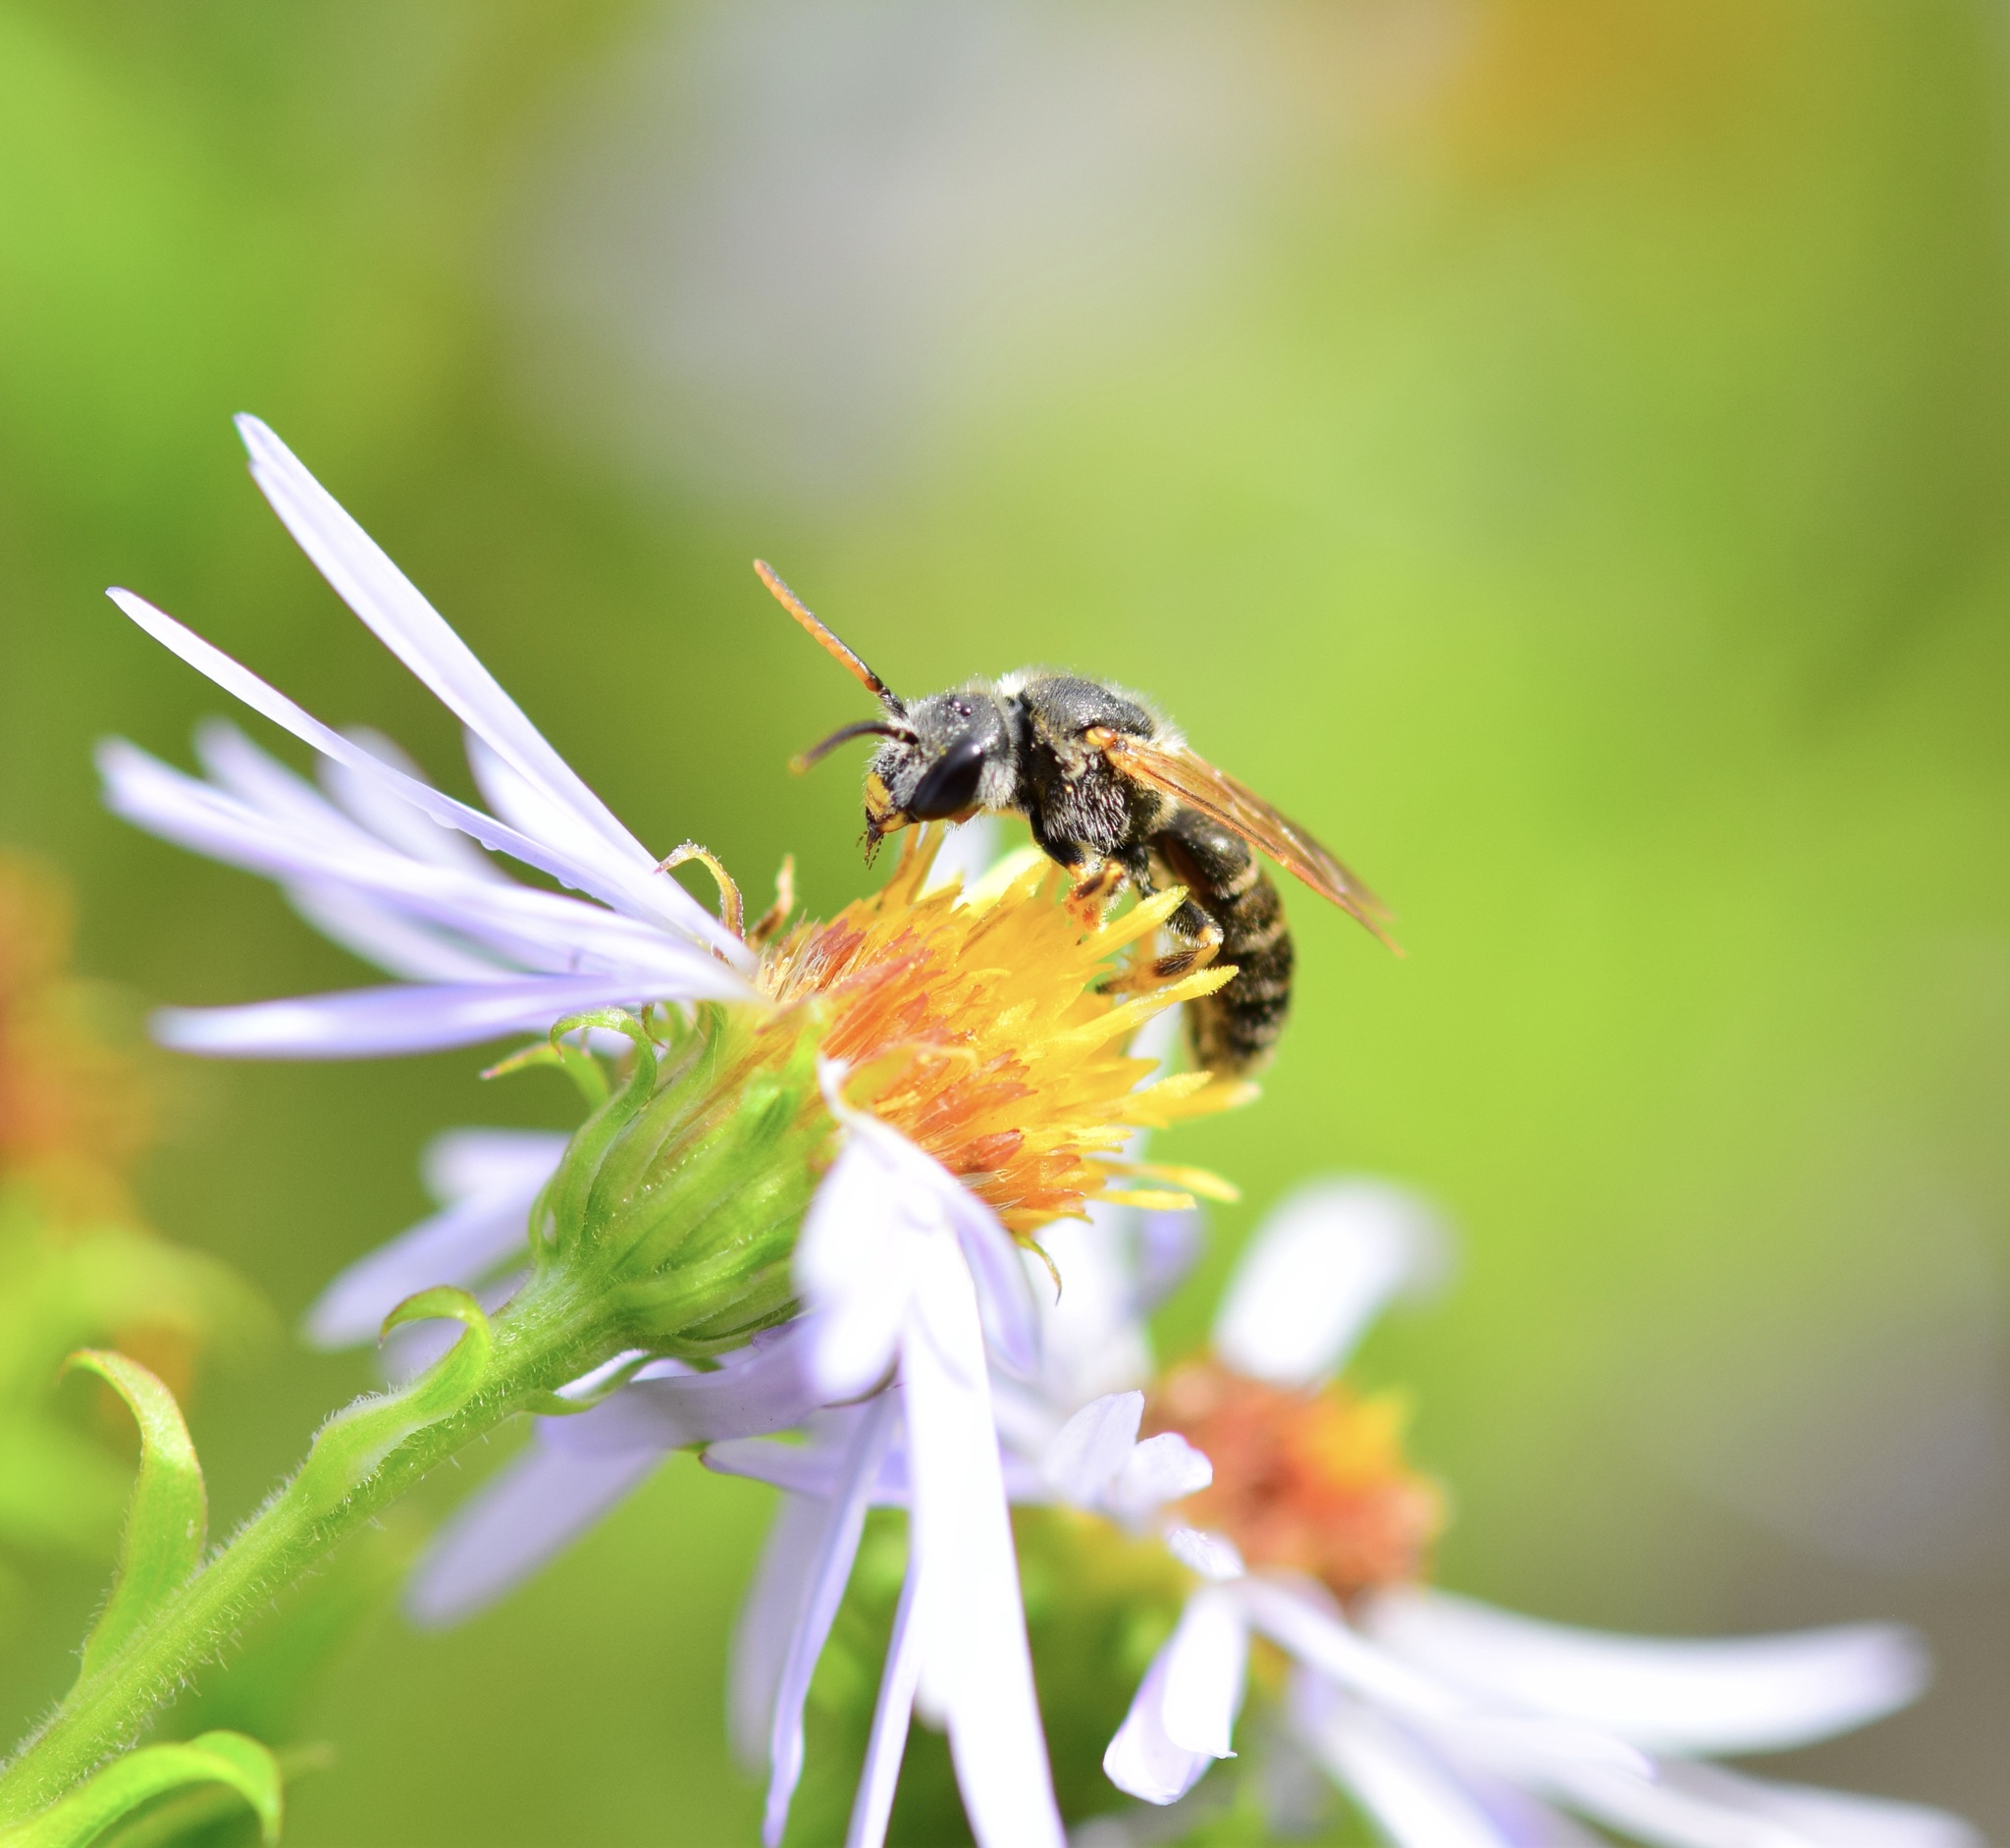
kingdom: Animalia
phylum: Arthropoda
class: Insecta
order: Hymenoptera
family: Halictidae
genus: Halictus
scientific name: Halictus ligatus
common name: Ligated furrow bee
